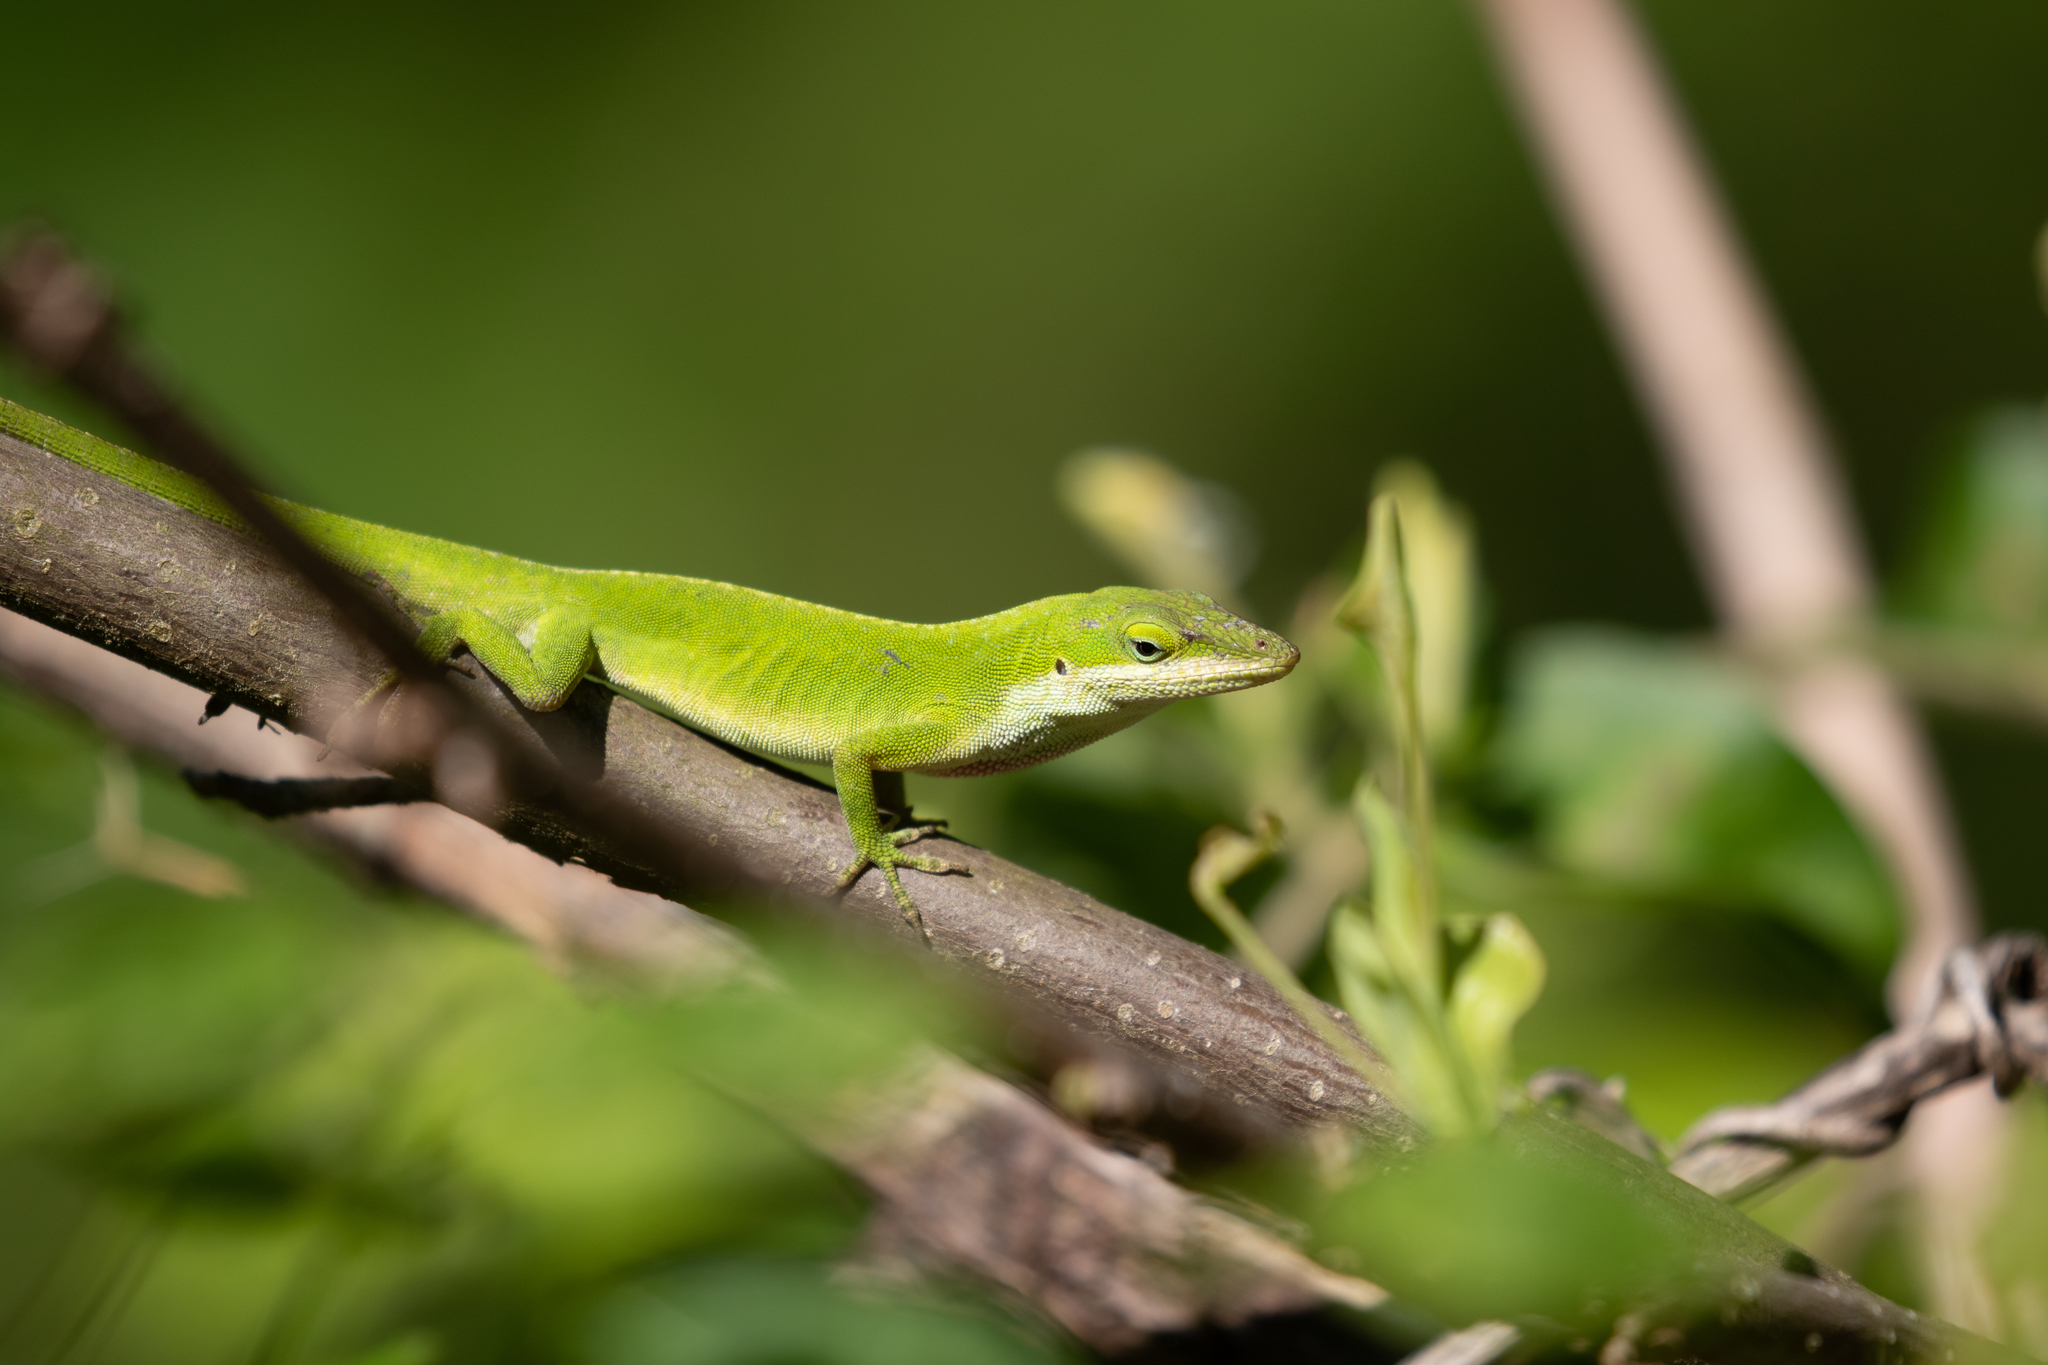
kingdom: Animalia
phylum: Chordata
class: Squamata
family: Dactyloidae
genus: Anolis
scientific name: Anolis carolinensis
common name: Green anole
